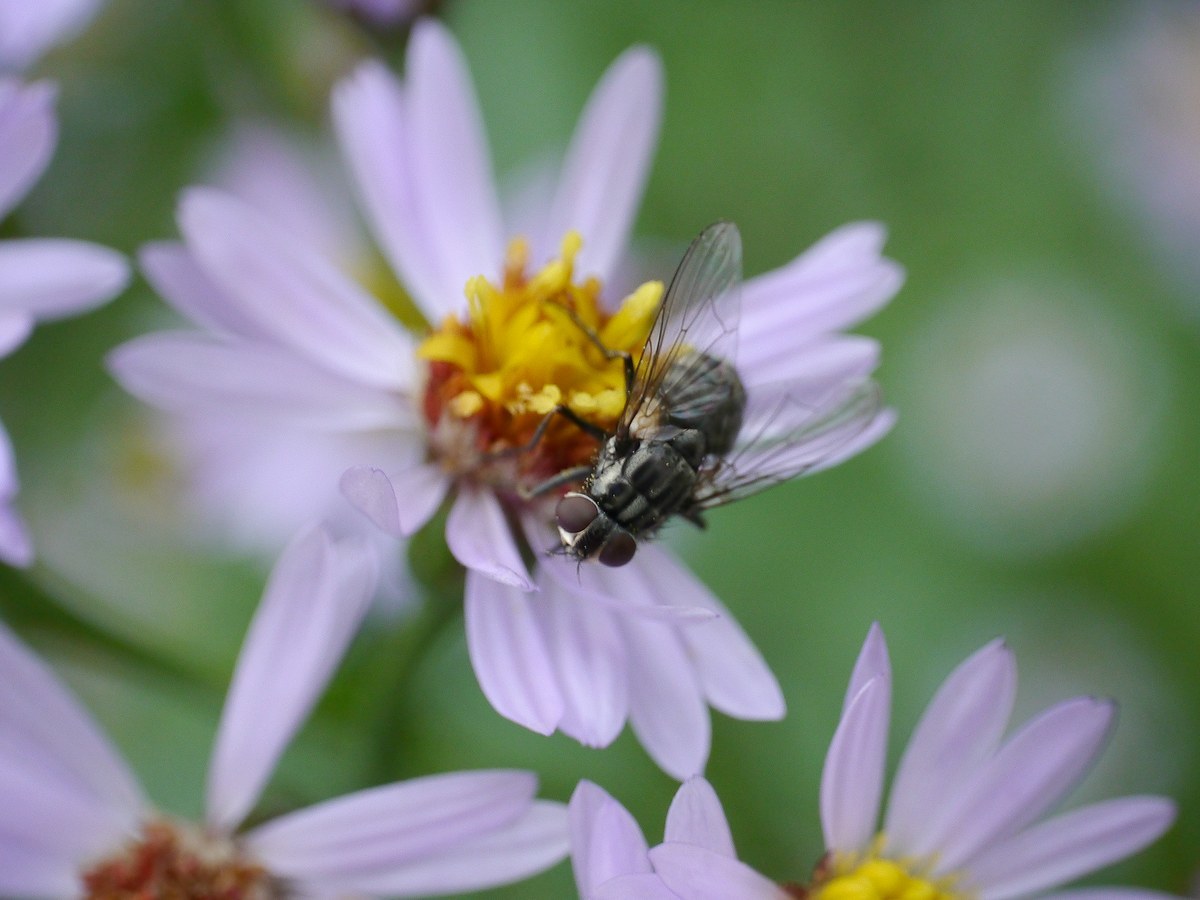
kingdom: Animalia
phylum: Arthropoda
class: Insecta
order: Diptera
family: Muscidae
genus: Stomoxys
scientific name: Stomoxys calcitrans
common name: Stable fly
